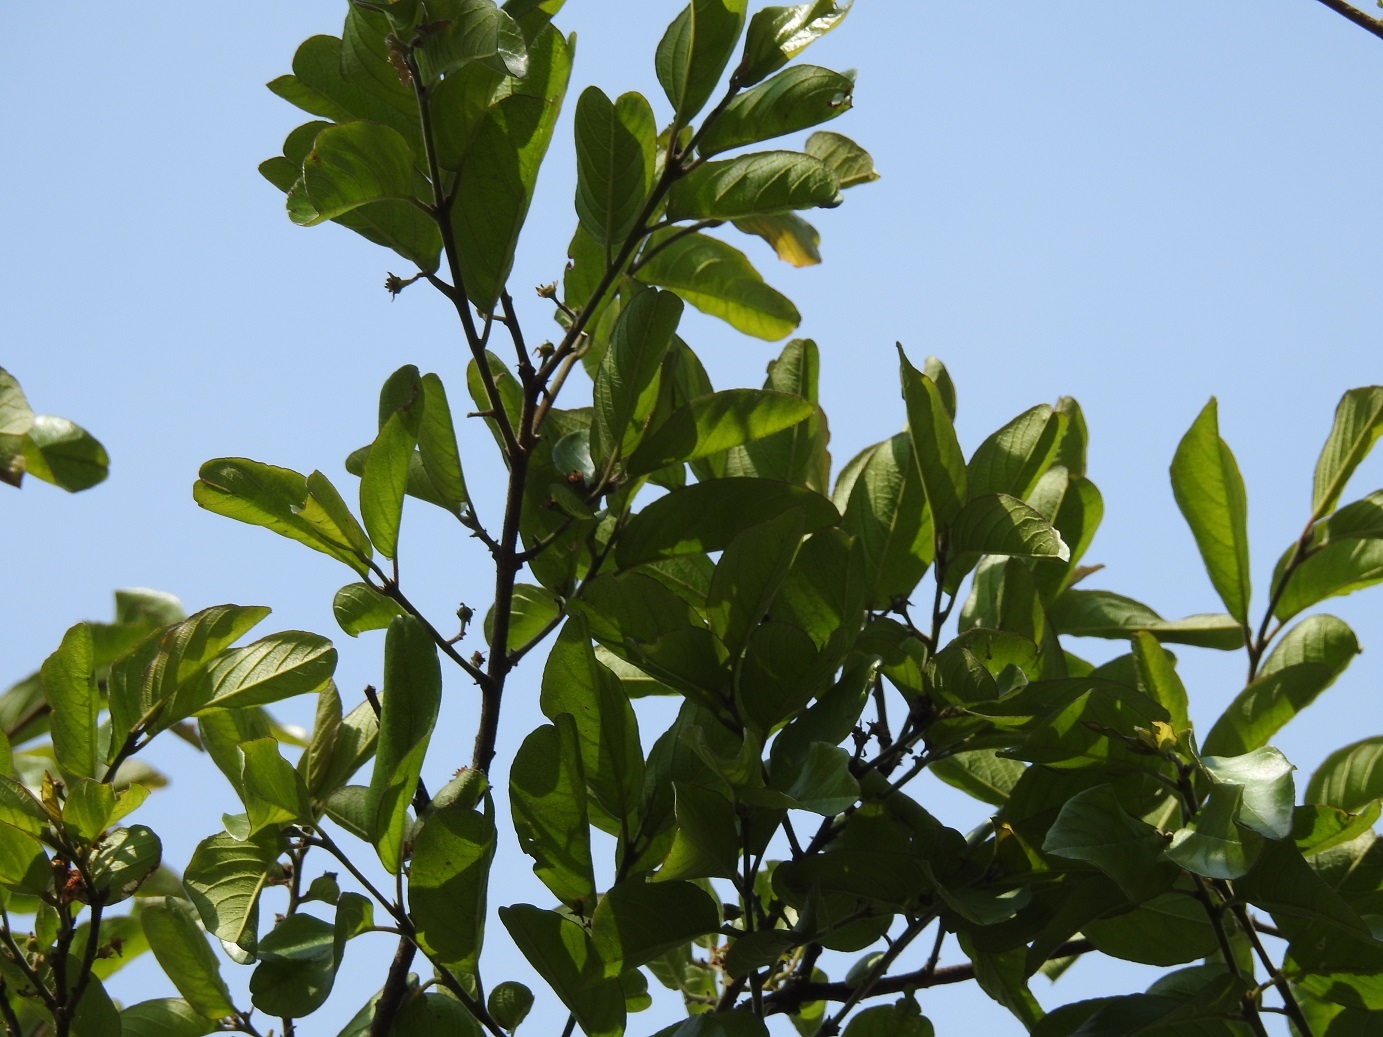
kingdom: Plantae
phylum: Tracheophyta
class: Magnoliopsida
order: Rosales
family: Rhamnaceae
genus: Sarcomphalus
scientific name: Sarcomphalus mexicanus
